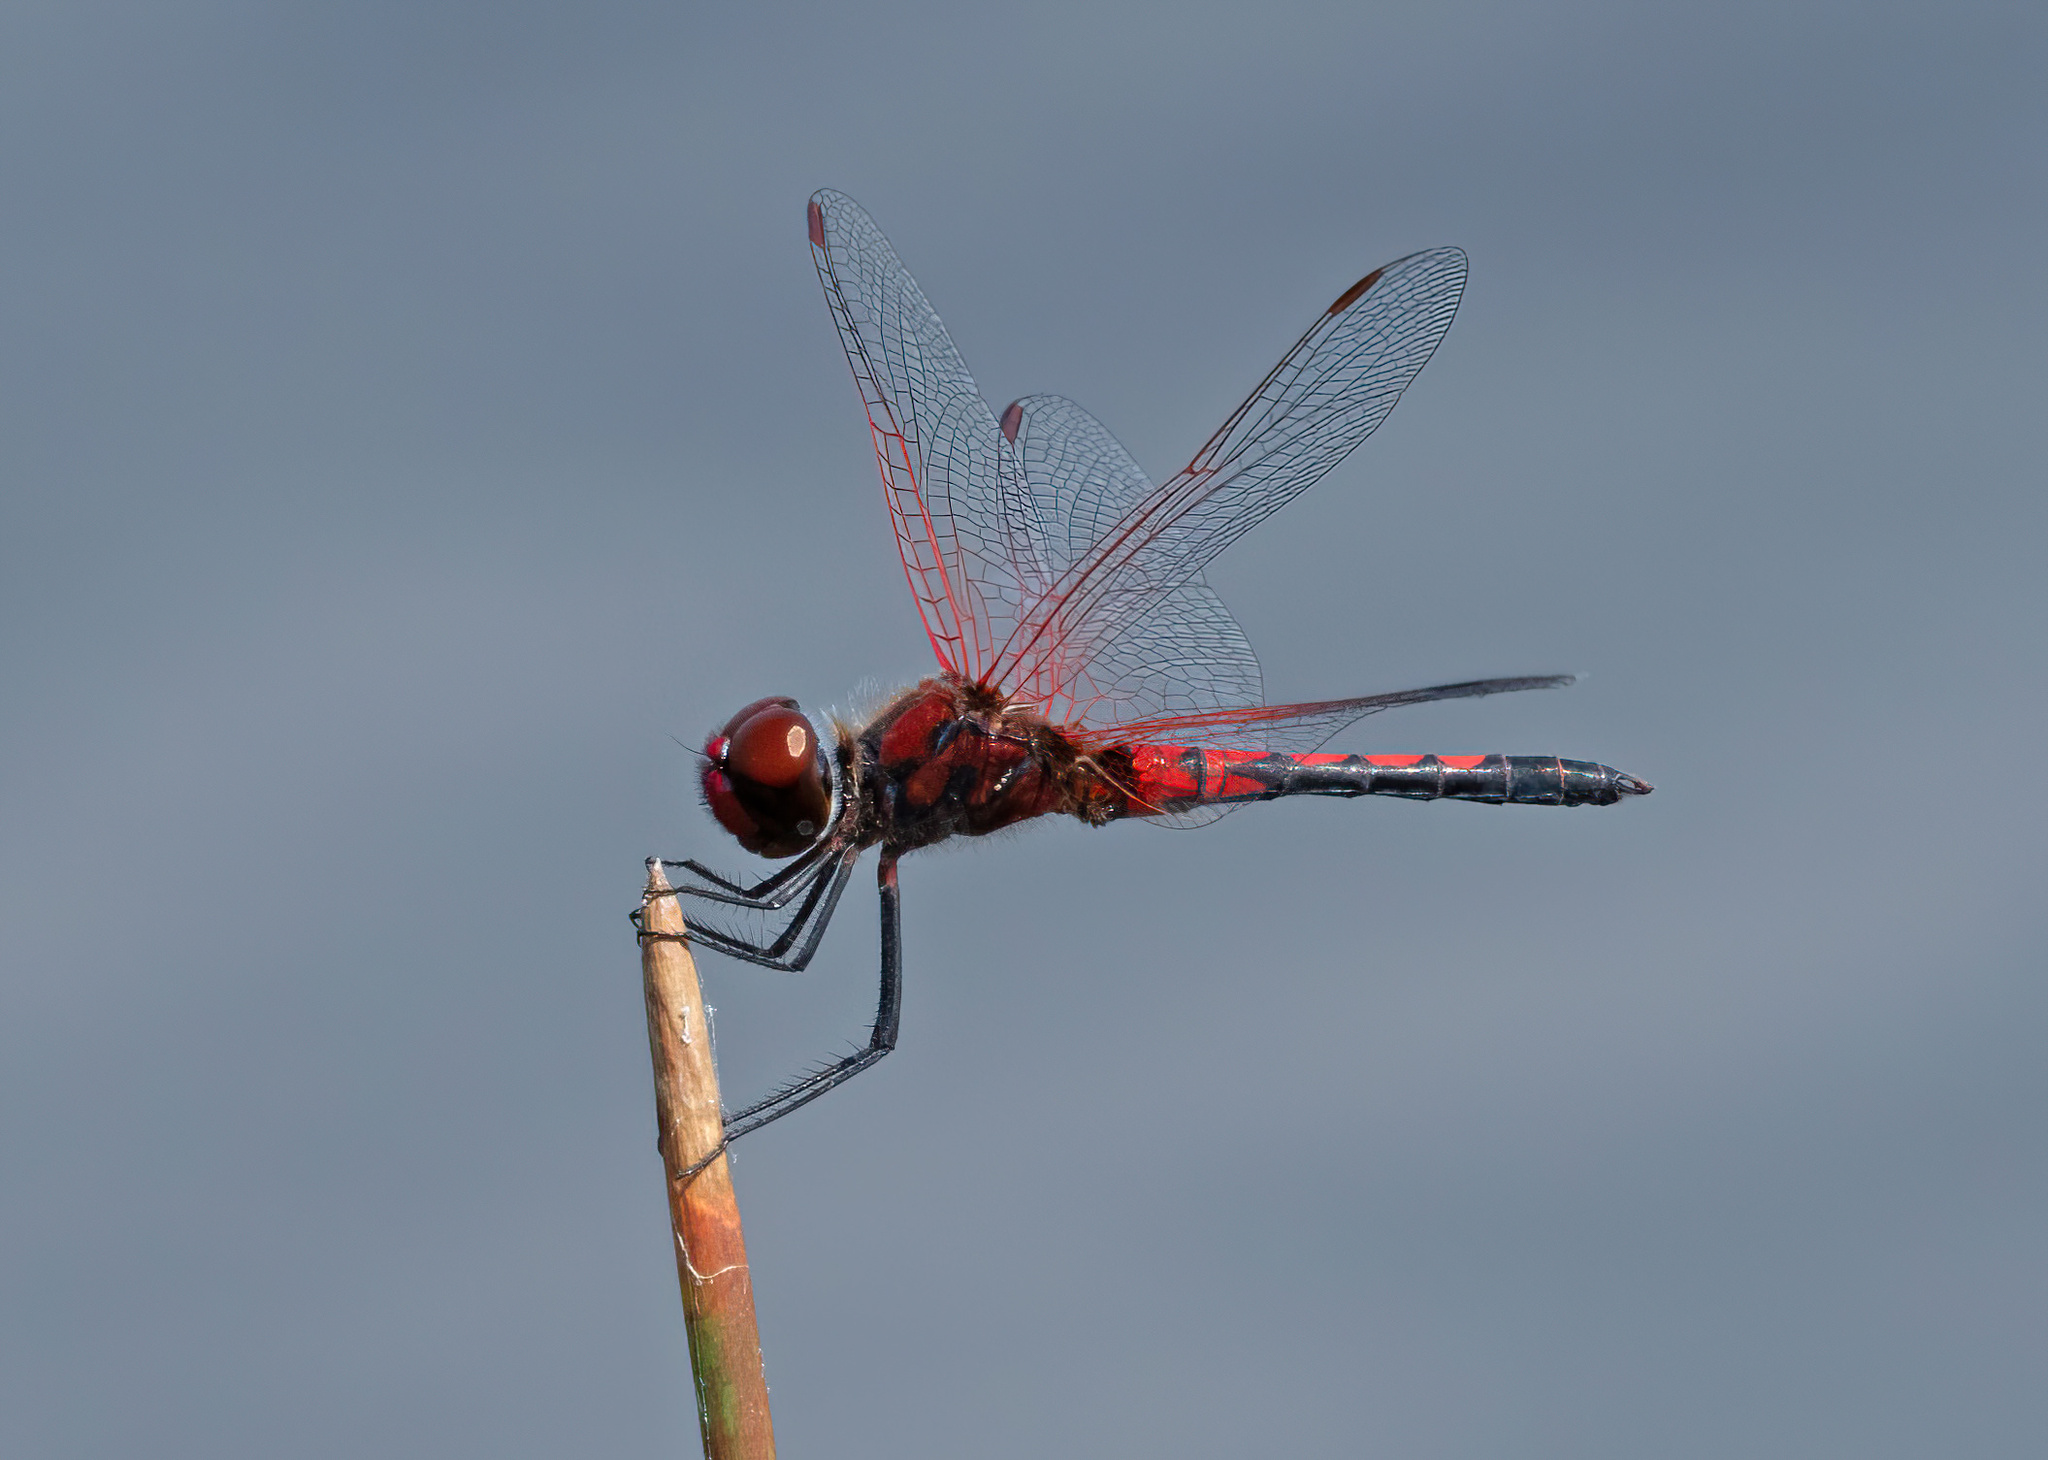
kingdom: Animalia
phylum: Arthropoda
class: Insecta
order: Odonata
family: Libellulidae
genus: Celithemis
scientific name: Celithemis bertha
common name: Red-veined pennant
